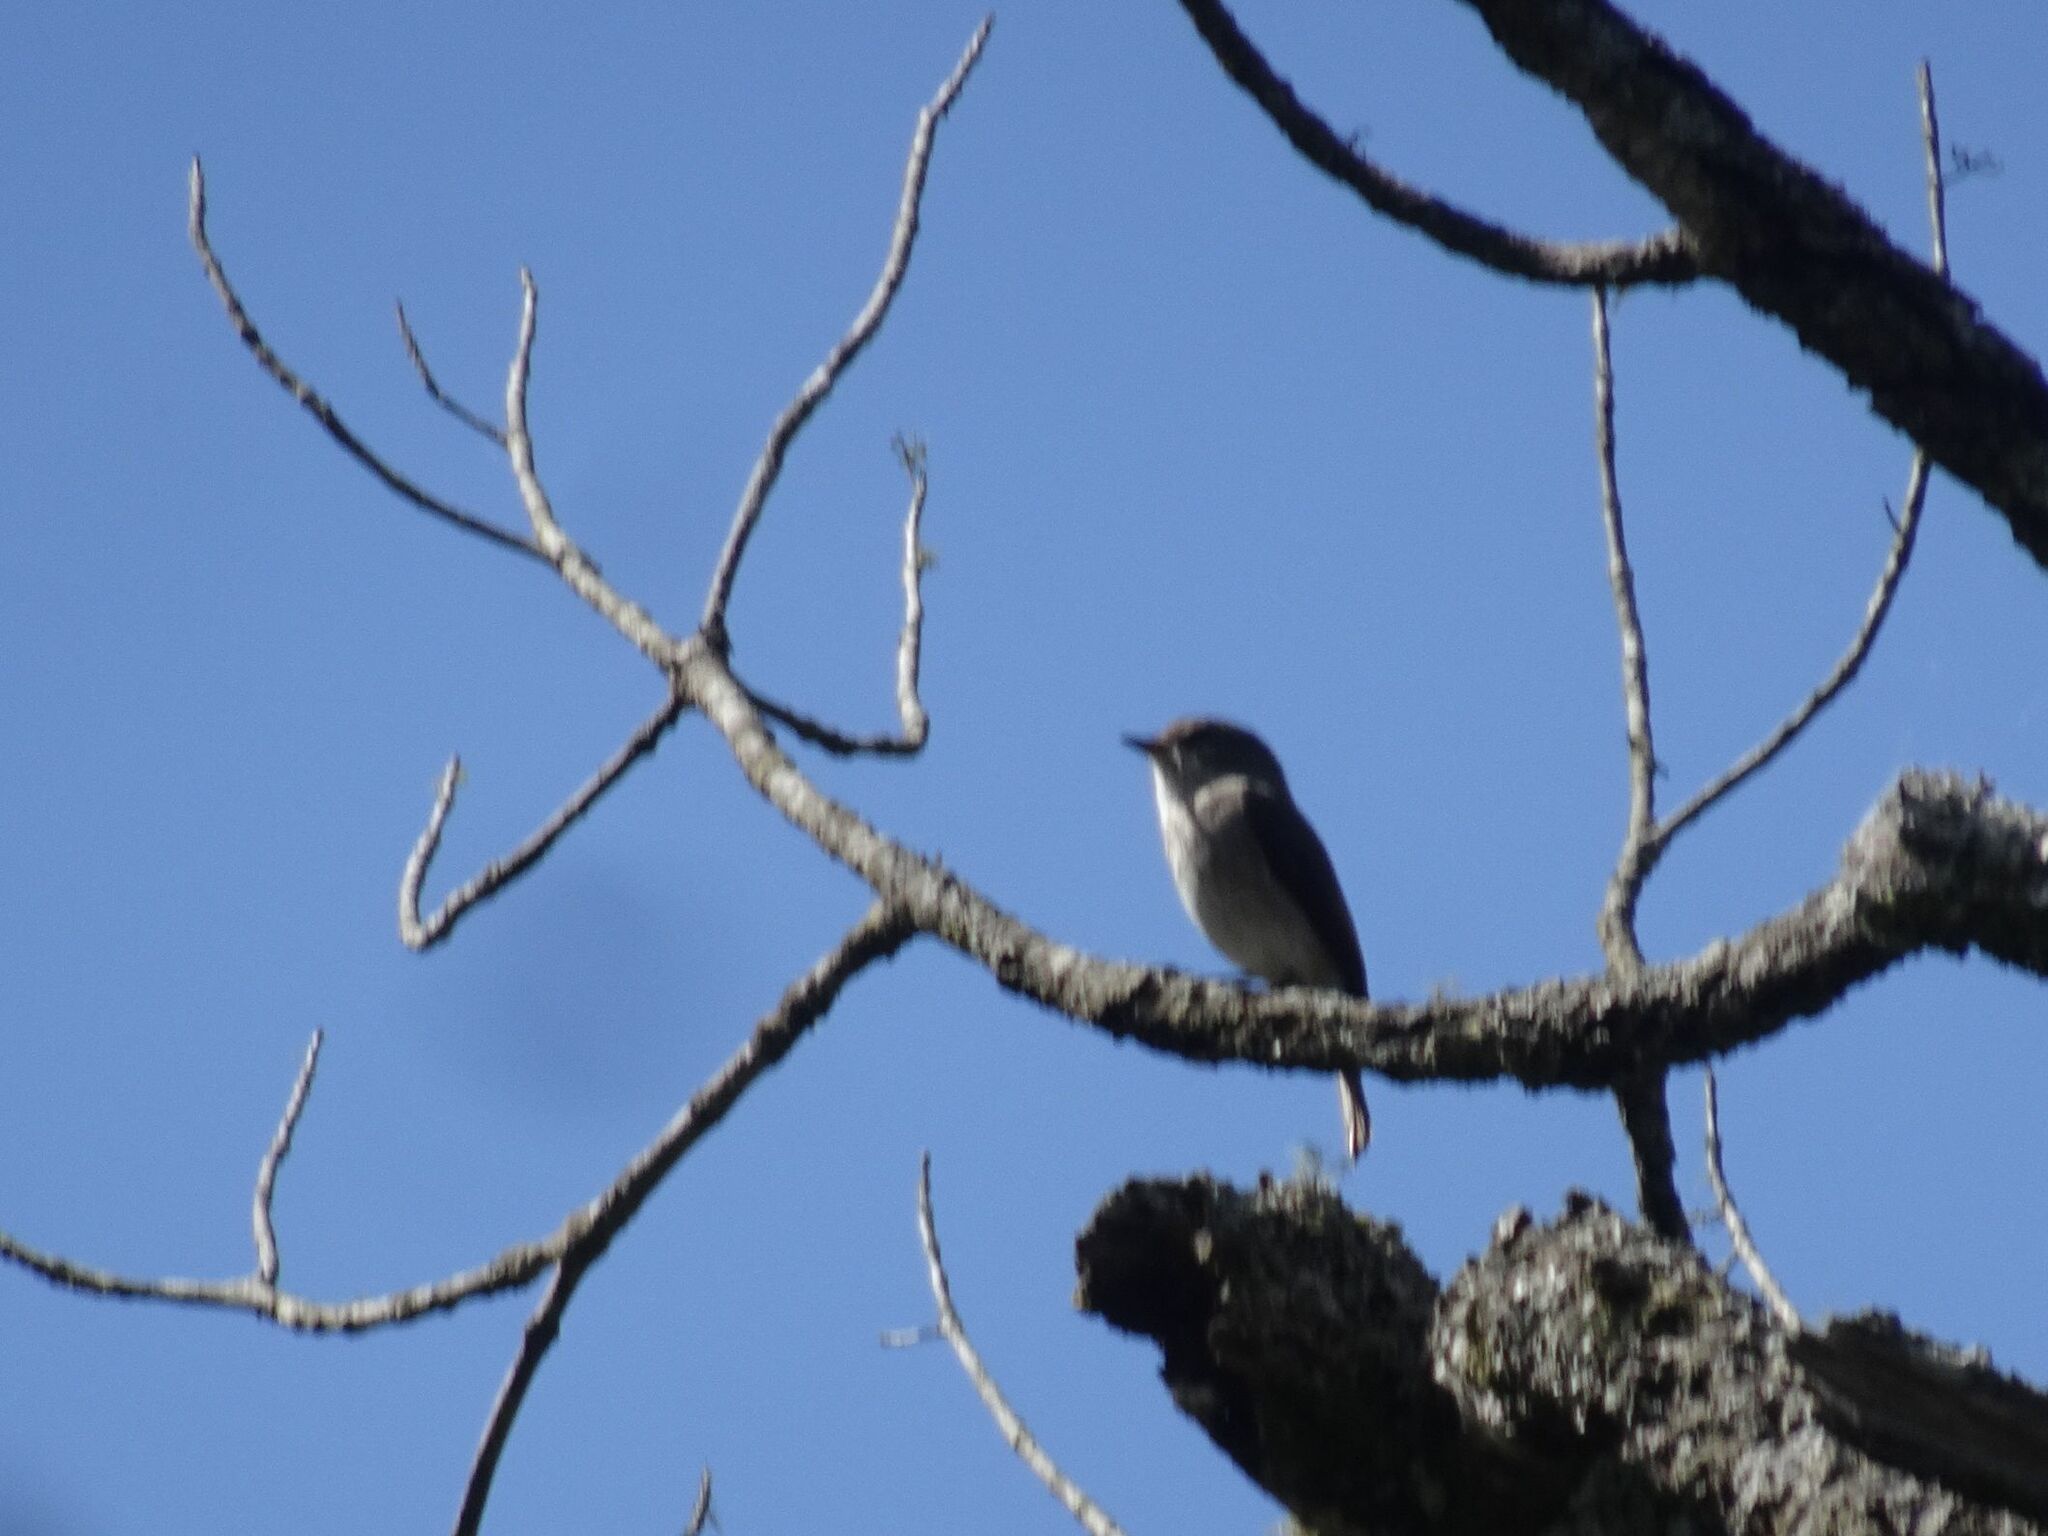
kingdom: Animalia
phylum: Chordata
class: Aves
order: Passeriformes
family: Muscicapidae
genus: Muscicapa
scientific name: Muscicapa adusta
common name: African dusky flycatcher
